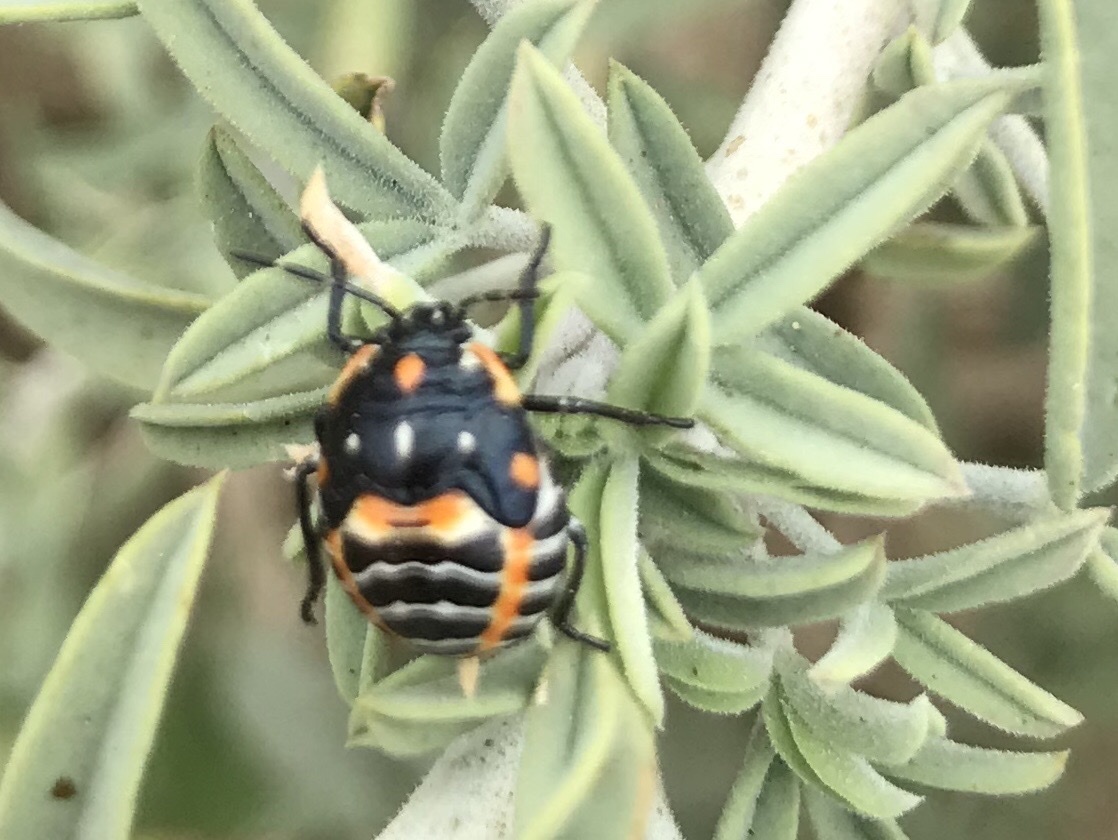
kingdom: Animalia
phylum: Arthropoda
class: Insecta
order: Hemiptera
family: Pentatomidae
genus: Murgantia
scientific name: Murgantia histrionica
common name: Harlequin bug
